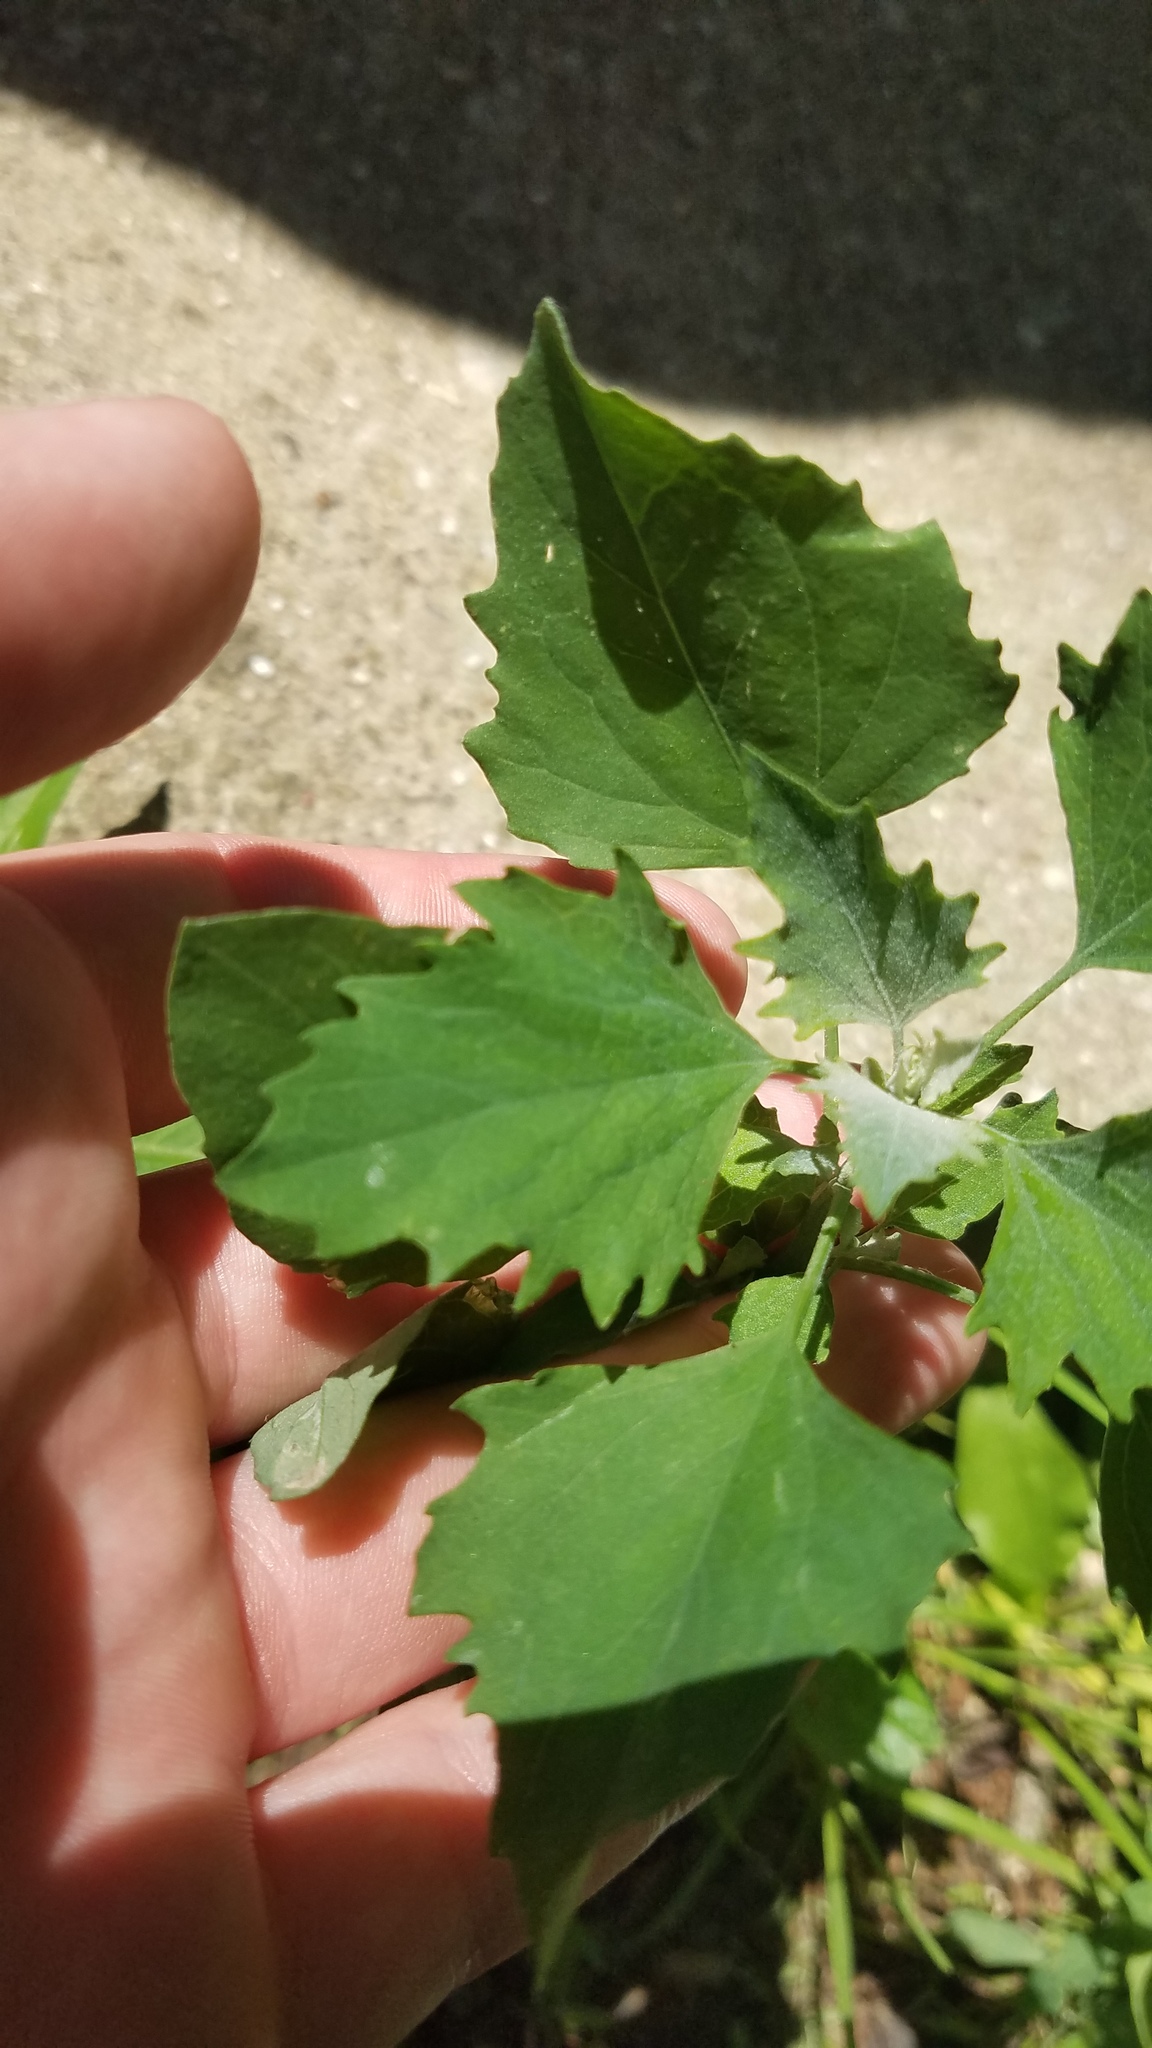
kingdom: Plantae
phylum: Tracheophyta
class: Magnoliopsida
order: Caryophyllales
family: Amaranthaceae
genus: Chenopodium
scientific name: Chenopodium album
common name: Fat-hen
